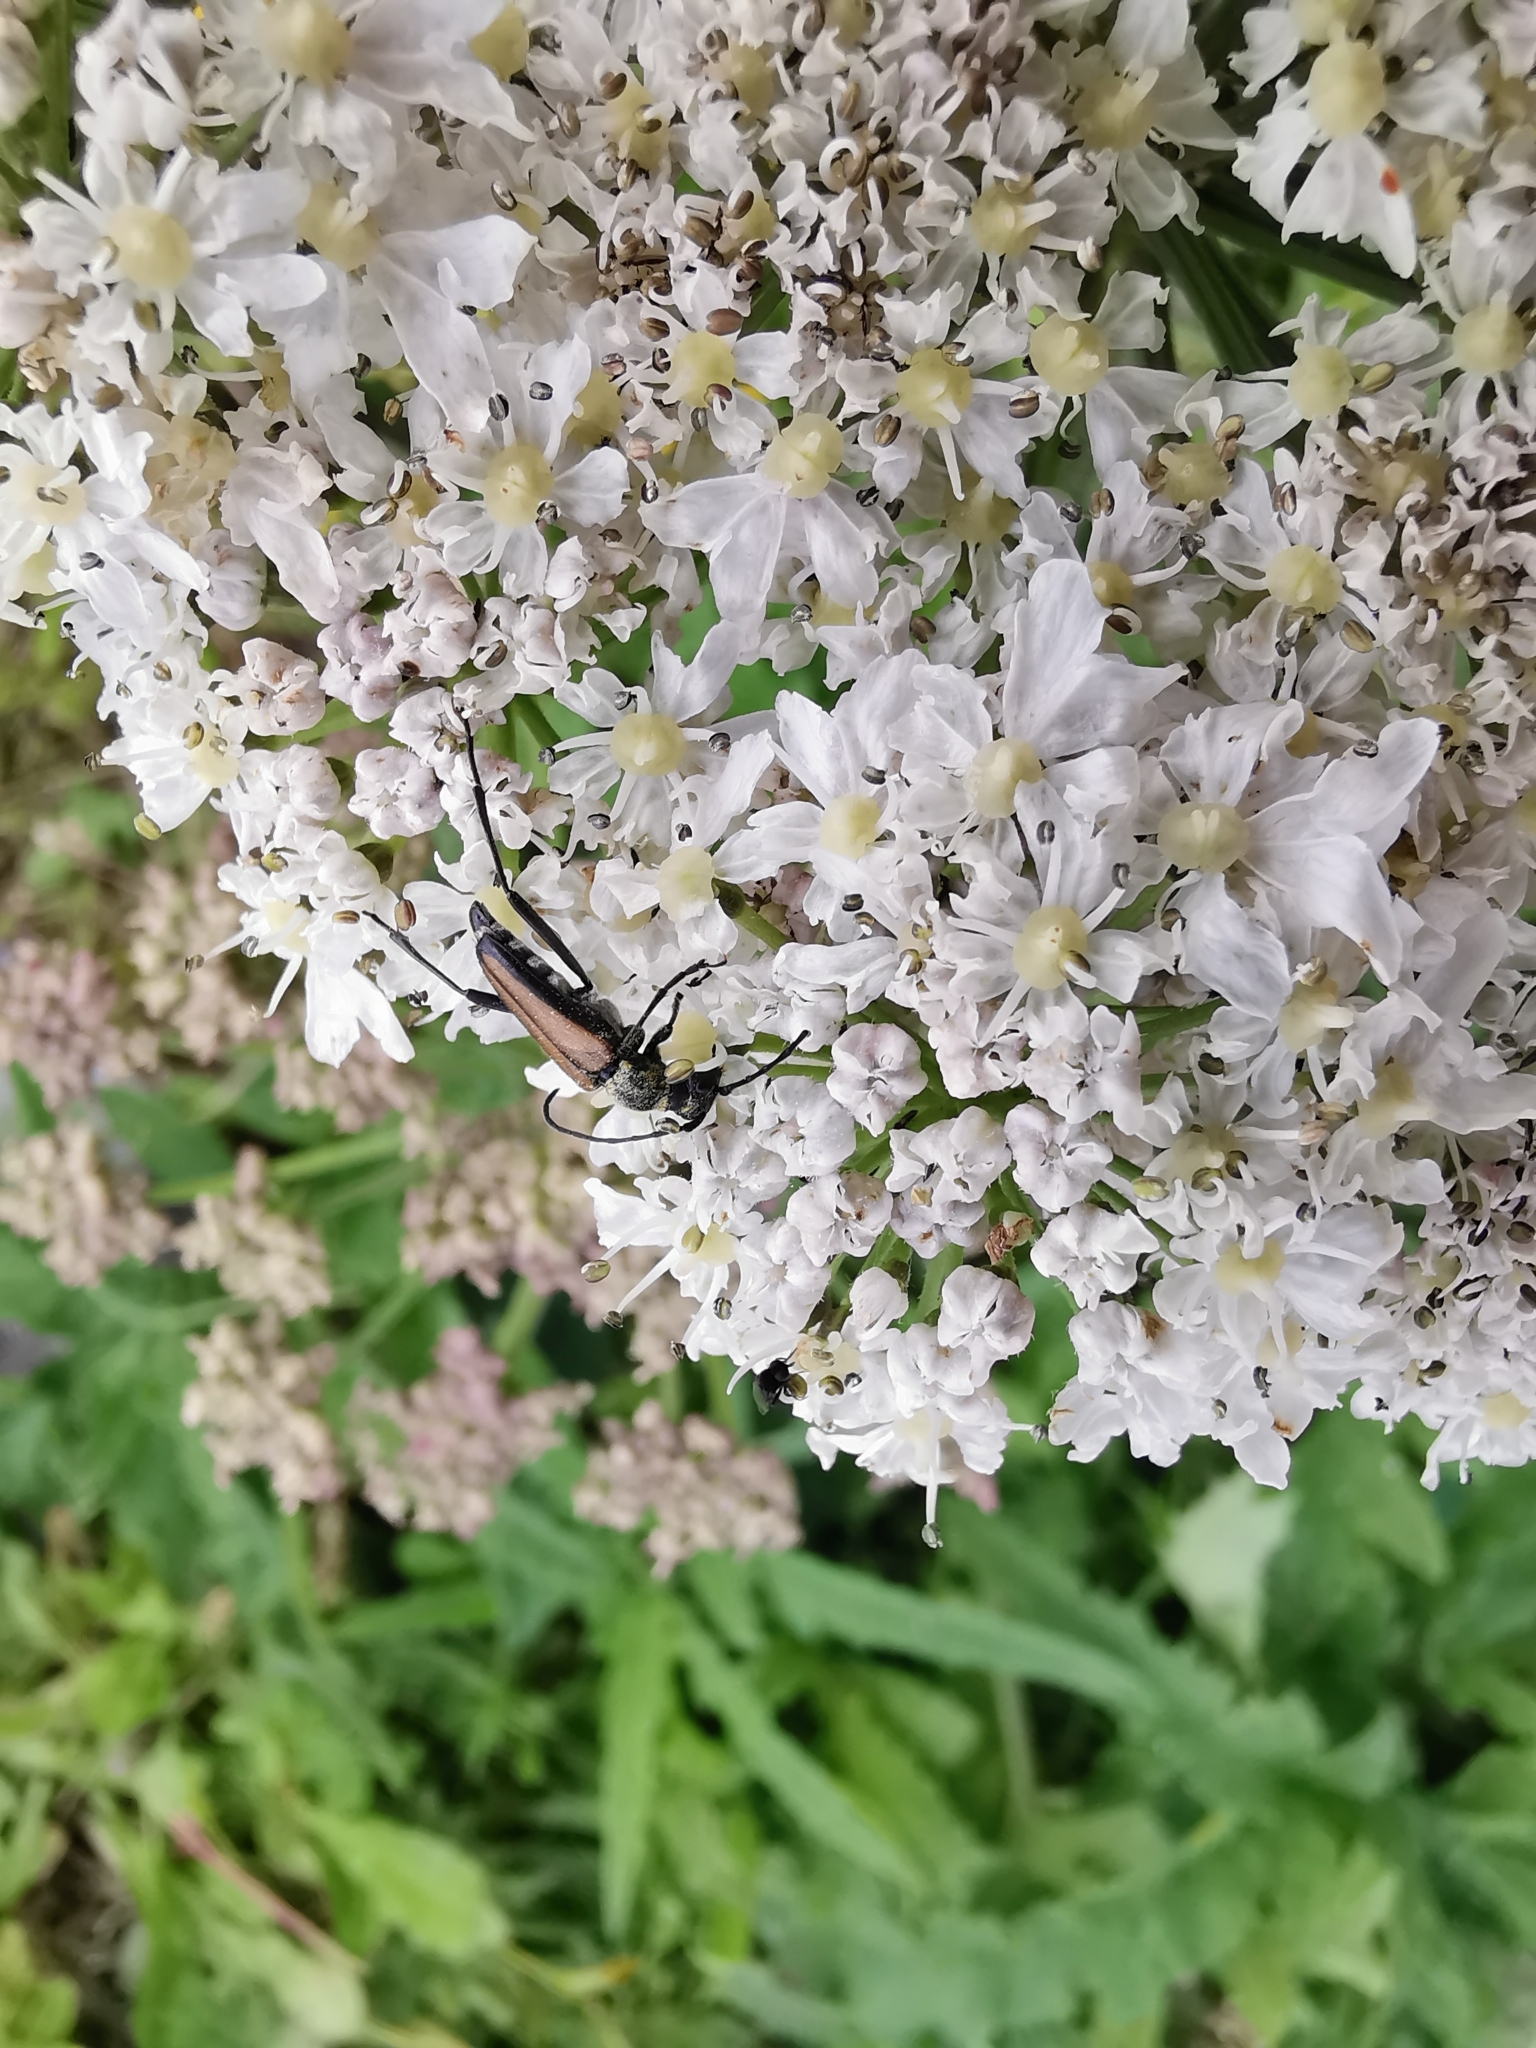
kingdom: Animalia
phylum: Arthropoda
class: Insecta
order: Coleoptera
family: Cerambycidae
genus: Anastrangalia
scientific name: Anastrangalia dubia
